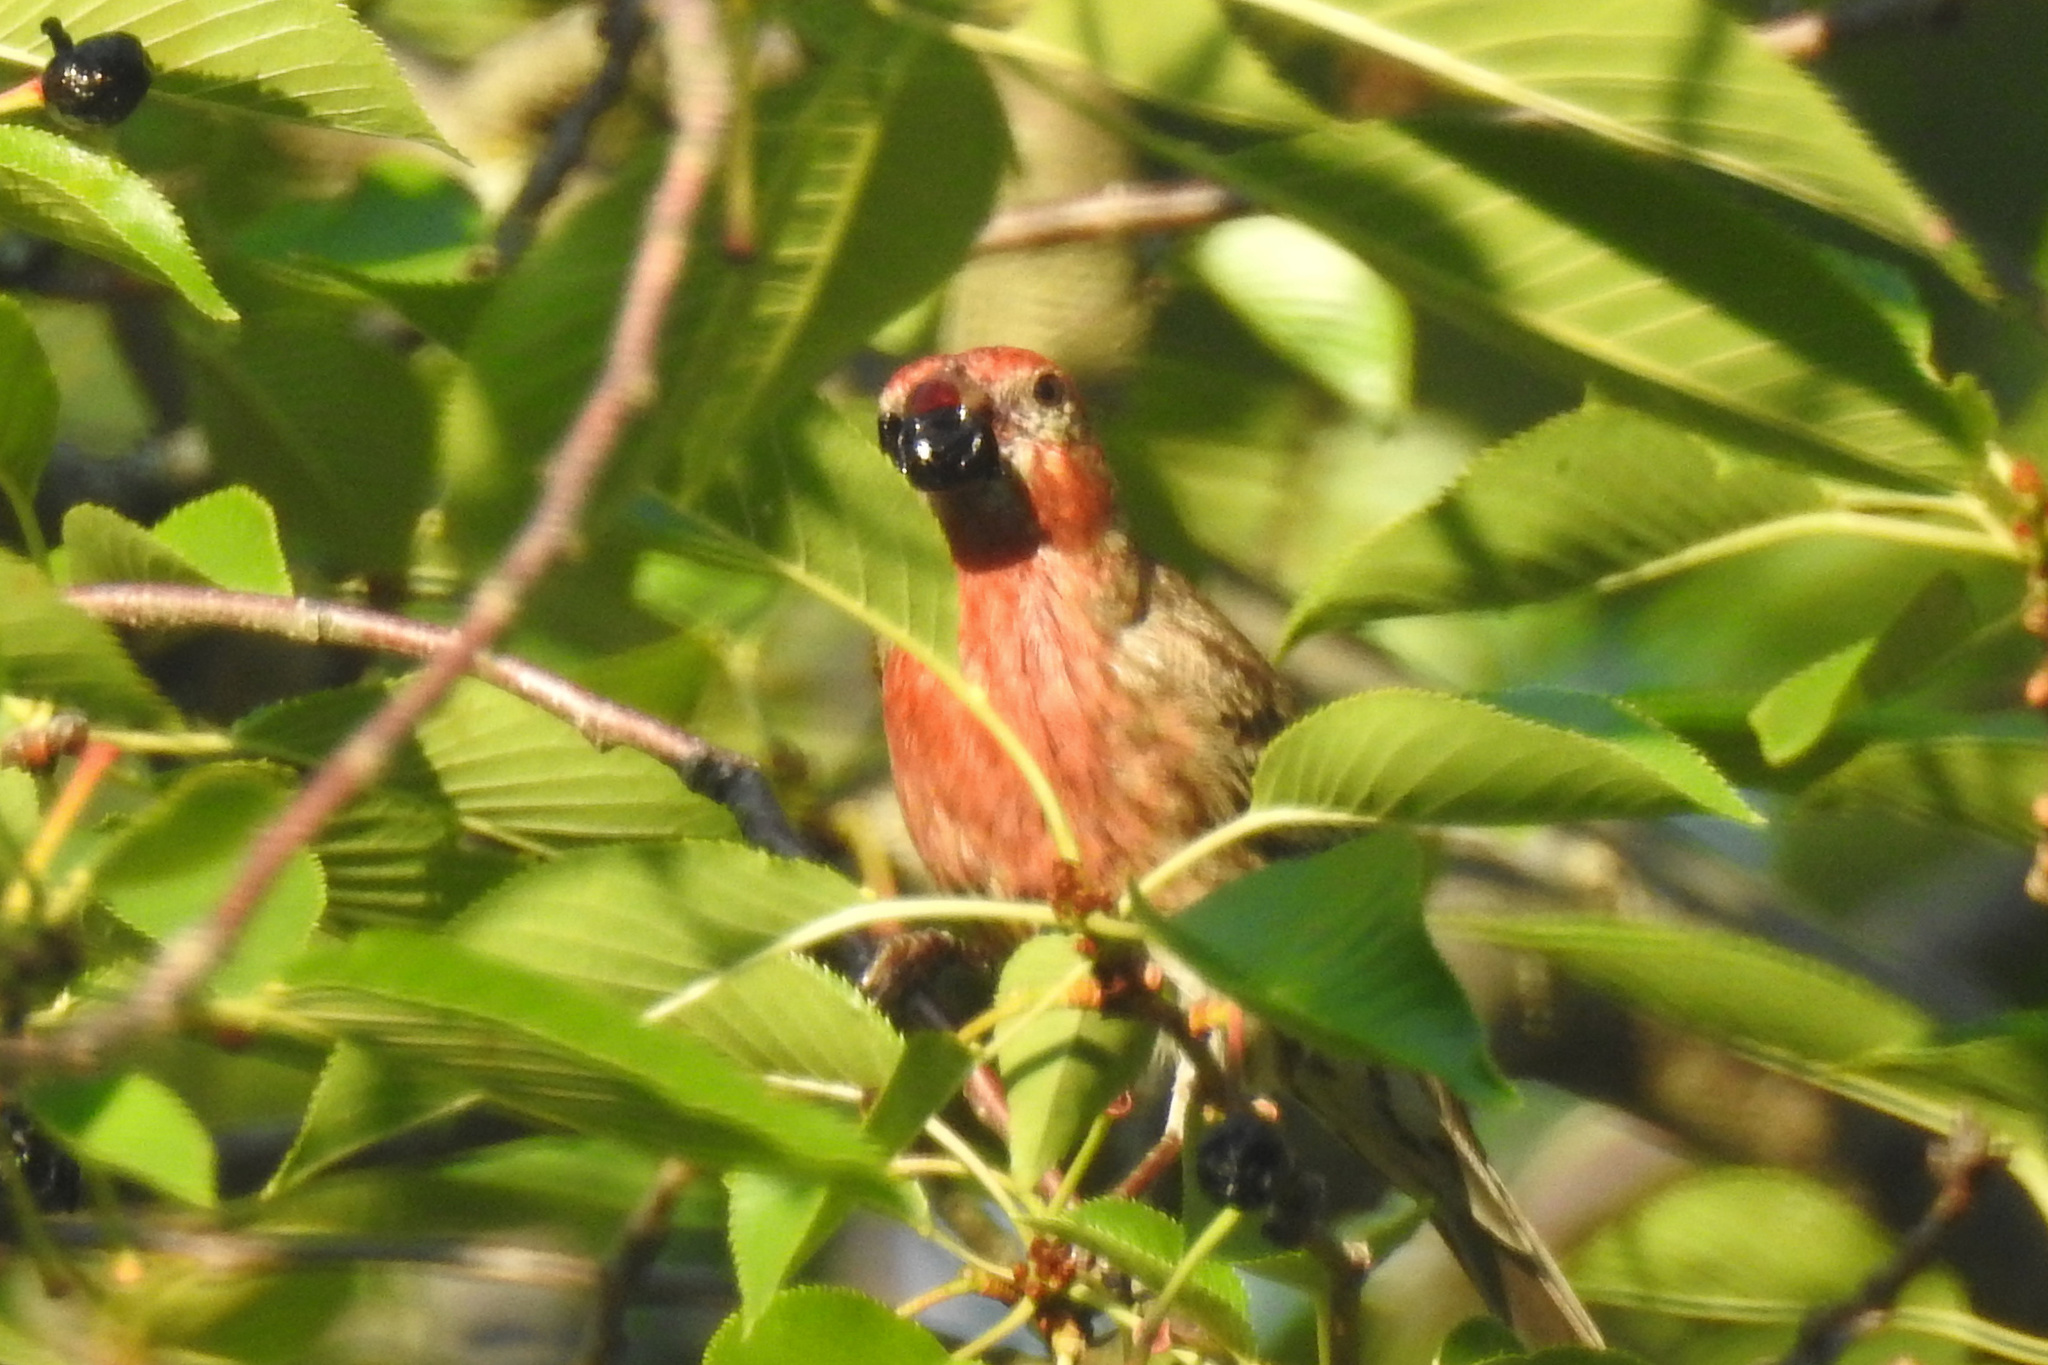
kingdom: Animalia
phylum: Chordata
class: Aves
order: Passeriformes
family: Fringillidae
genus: Haemorhous
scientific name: Haemorhous mexicanus
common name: House finch
